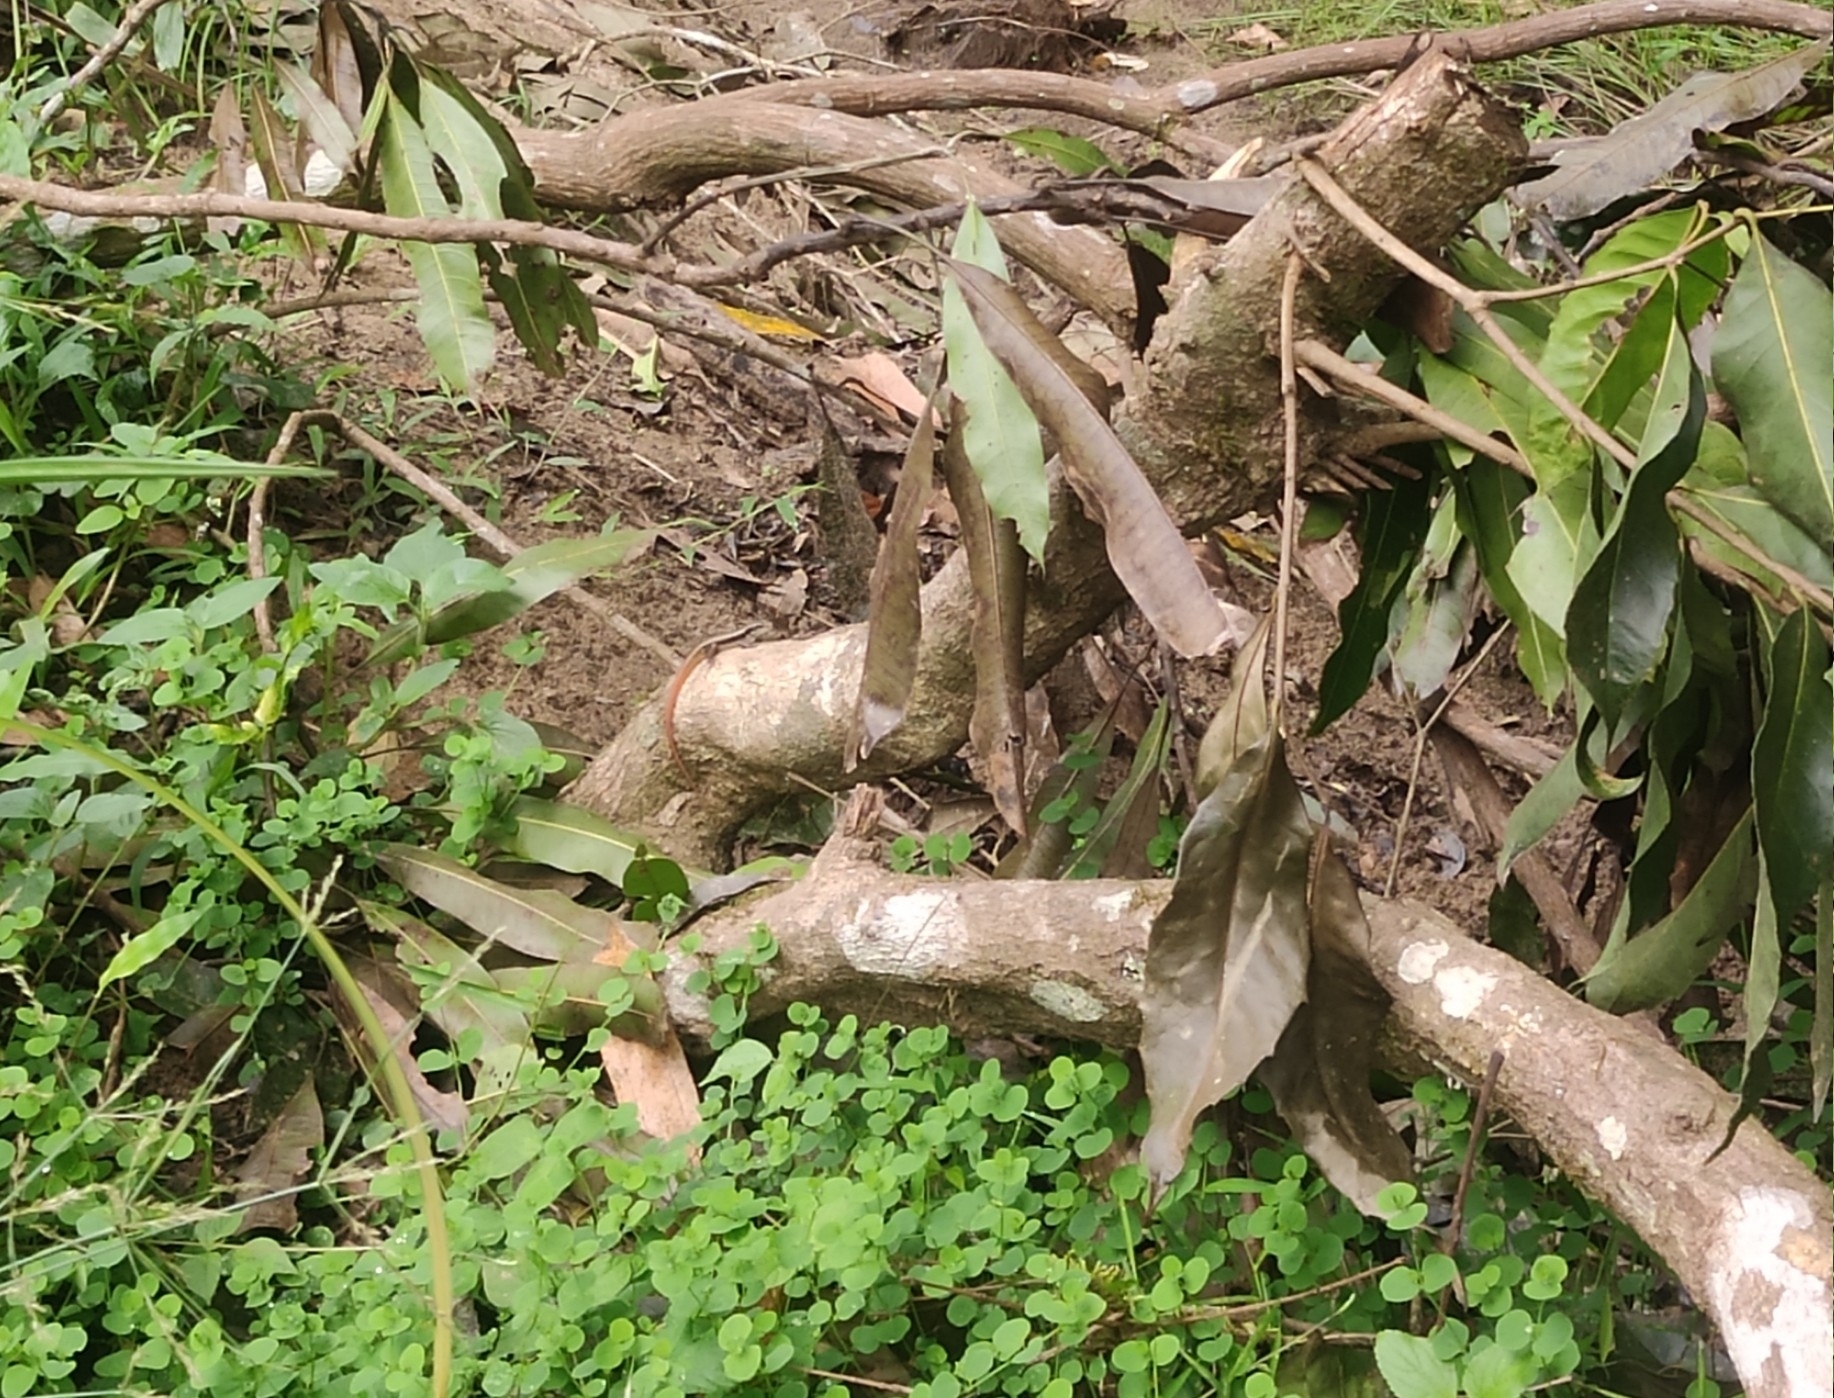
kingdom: Animalia
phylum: Chordata
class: Squamata
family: Scincidae
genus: Sphenomorphus
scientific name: Sphenomorphus dussumieri
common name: Dussumier's forest skink
